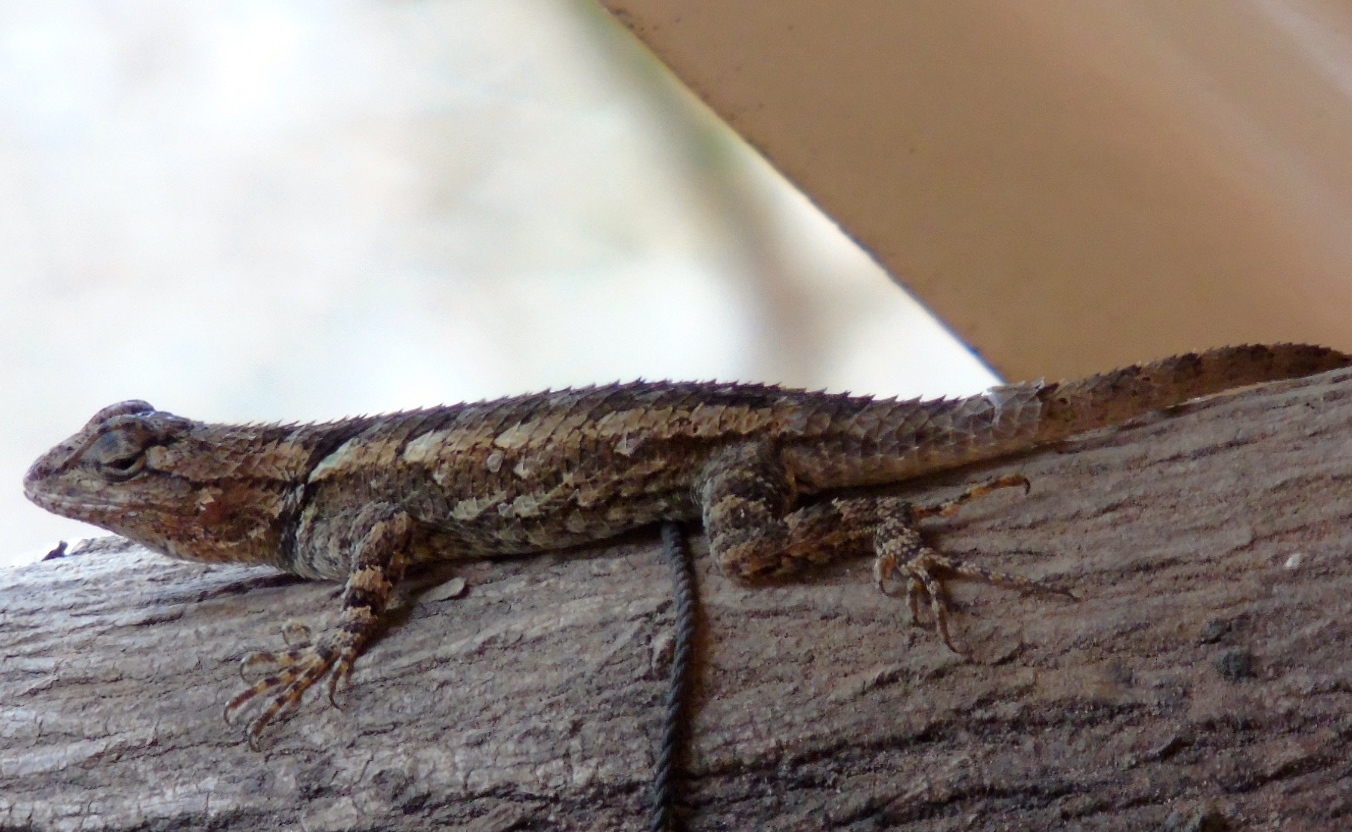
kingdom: Animalia
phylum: Chordata
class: Squamata
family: Phrynosomatidae
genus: Sceloporus
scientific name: Sceloporus clarkii
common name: Clark's spiny lizard
